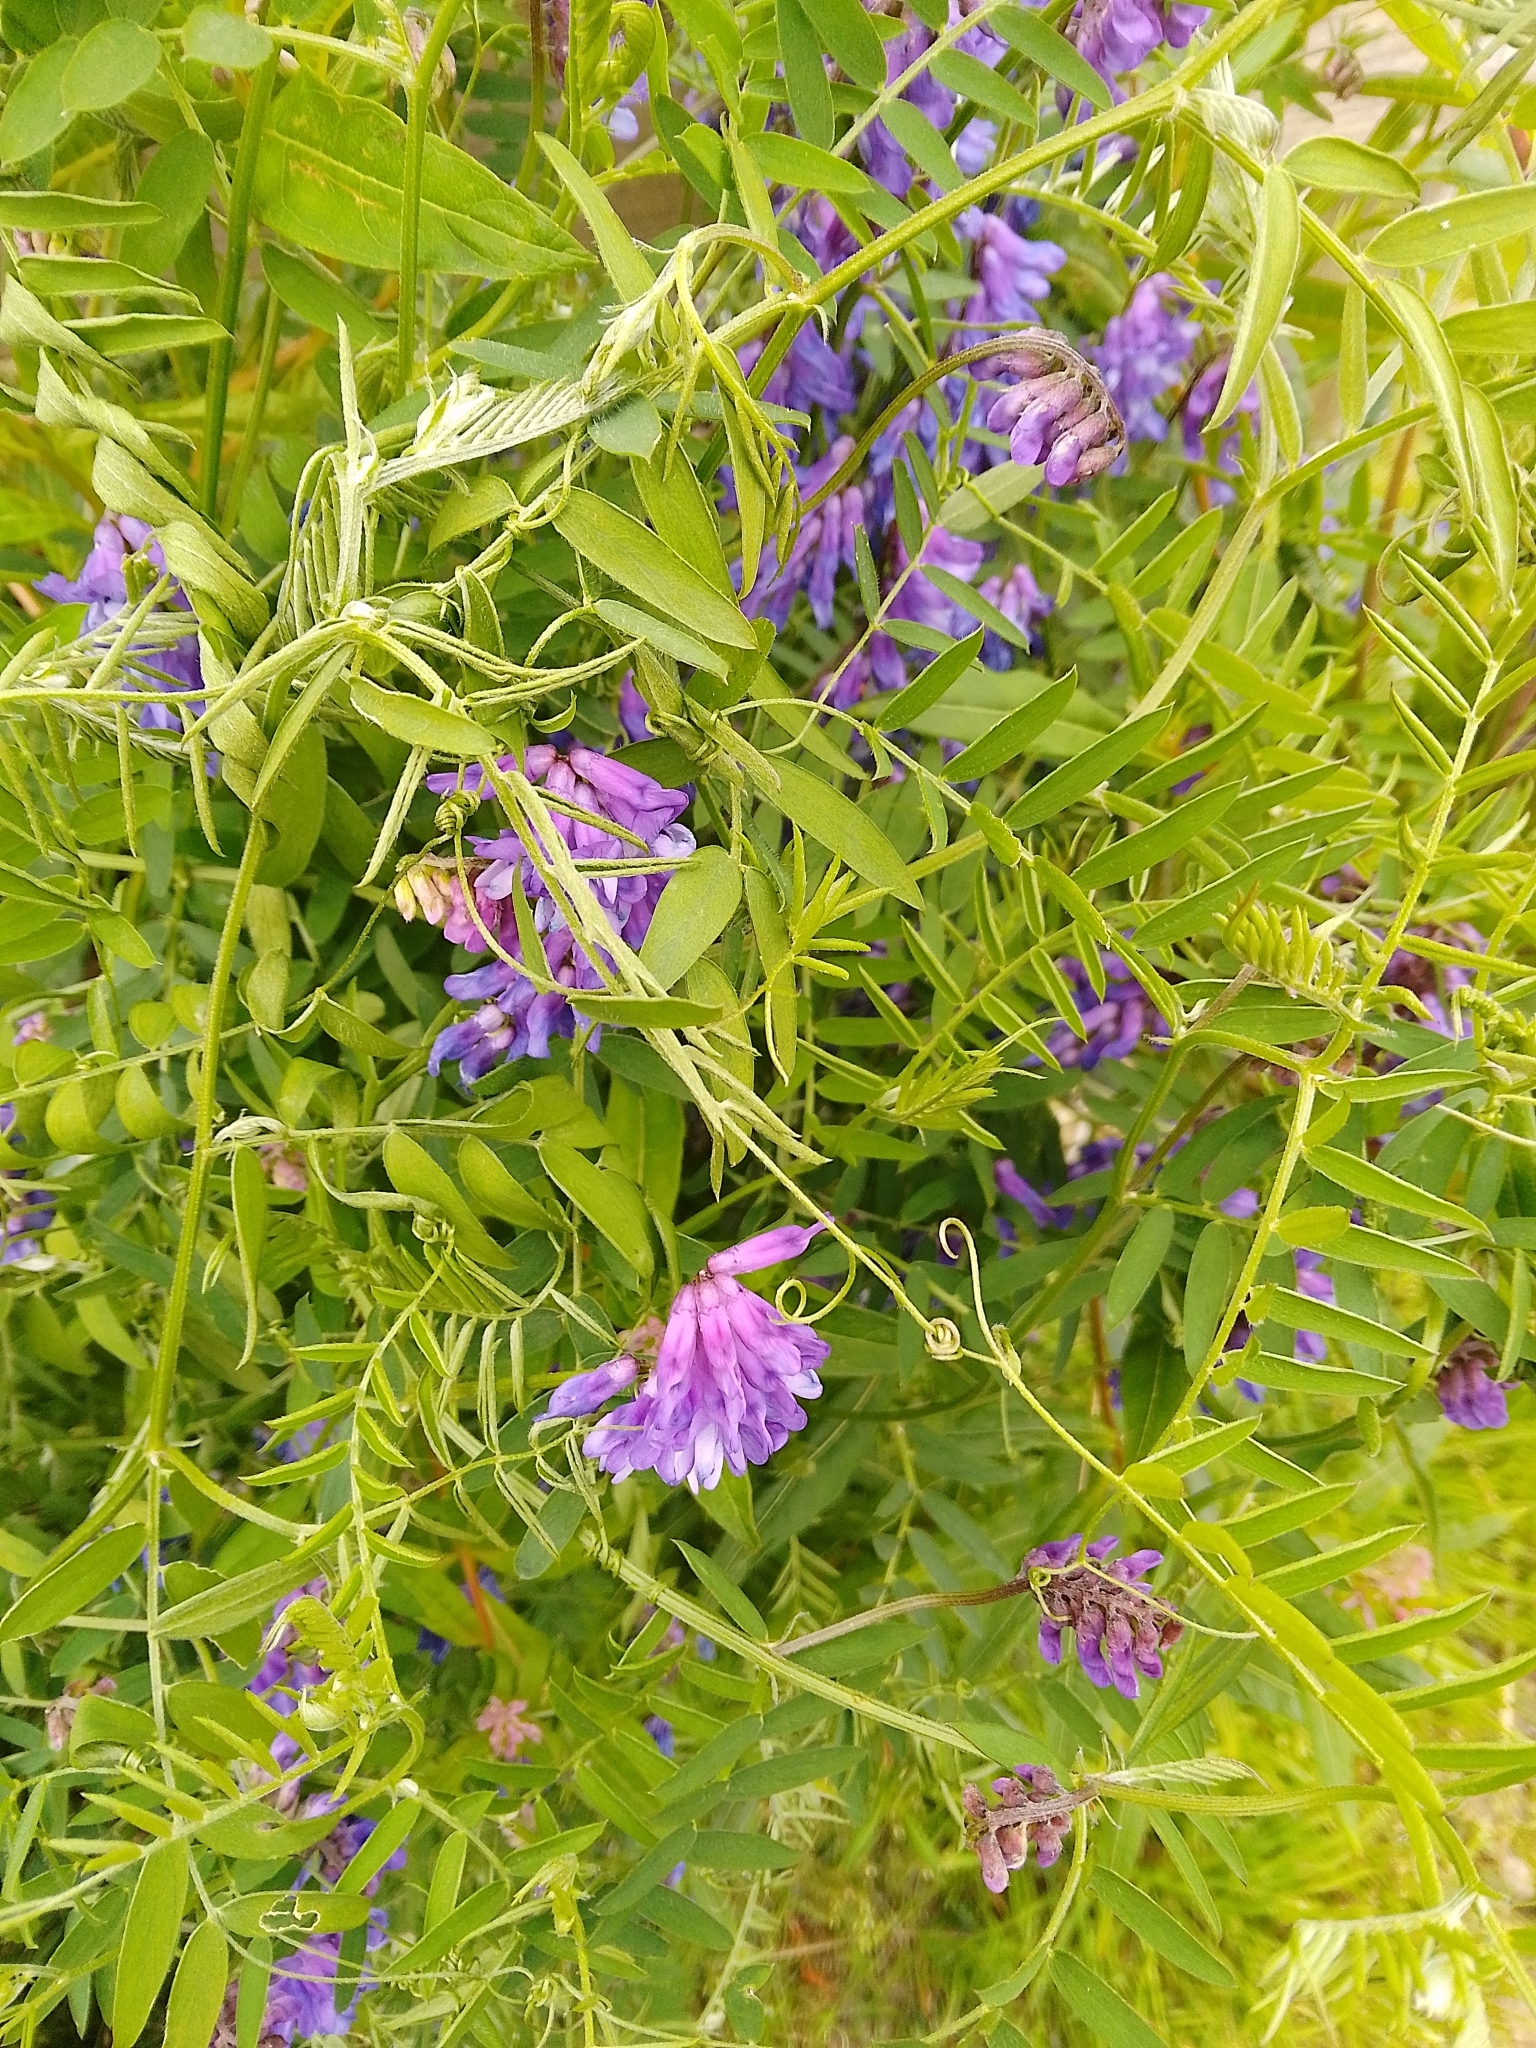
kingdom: Plantae
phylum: Tracheophyta
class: Magnoliopsida
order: Fabales
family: Fabaceae
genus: Vicia
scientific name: Vicia cracca
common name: Bird vetch
